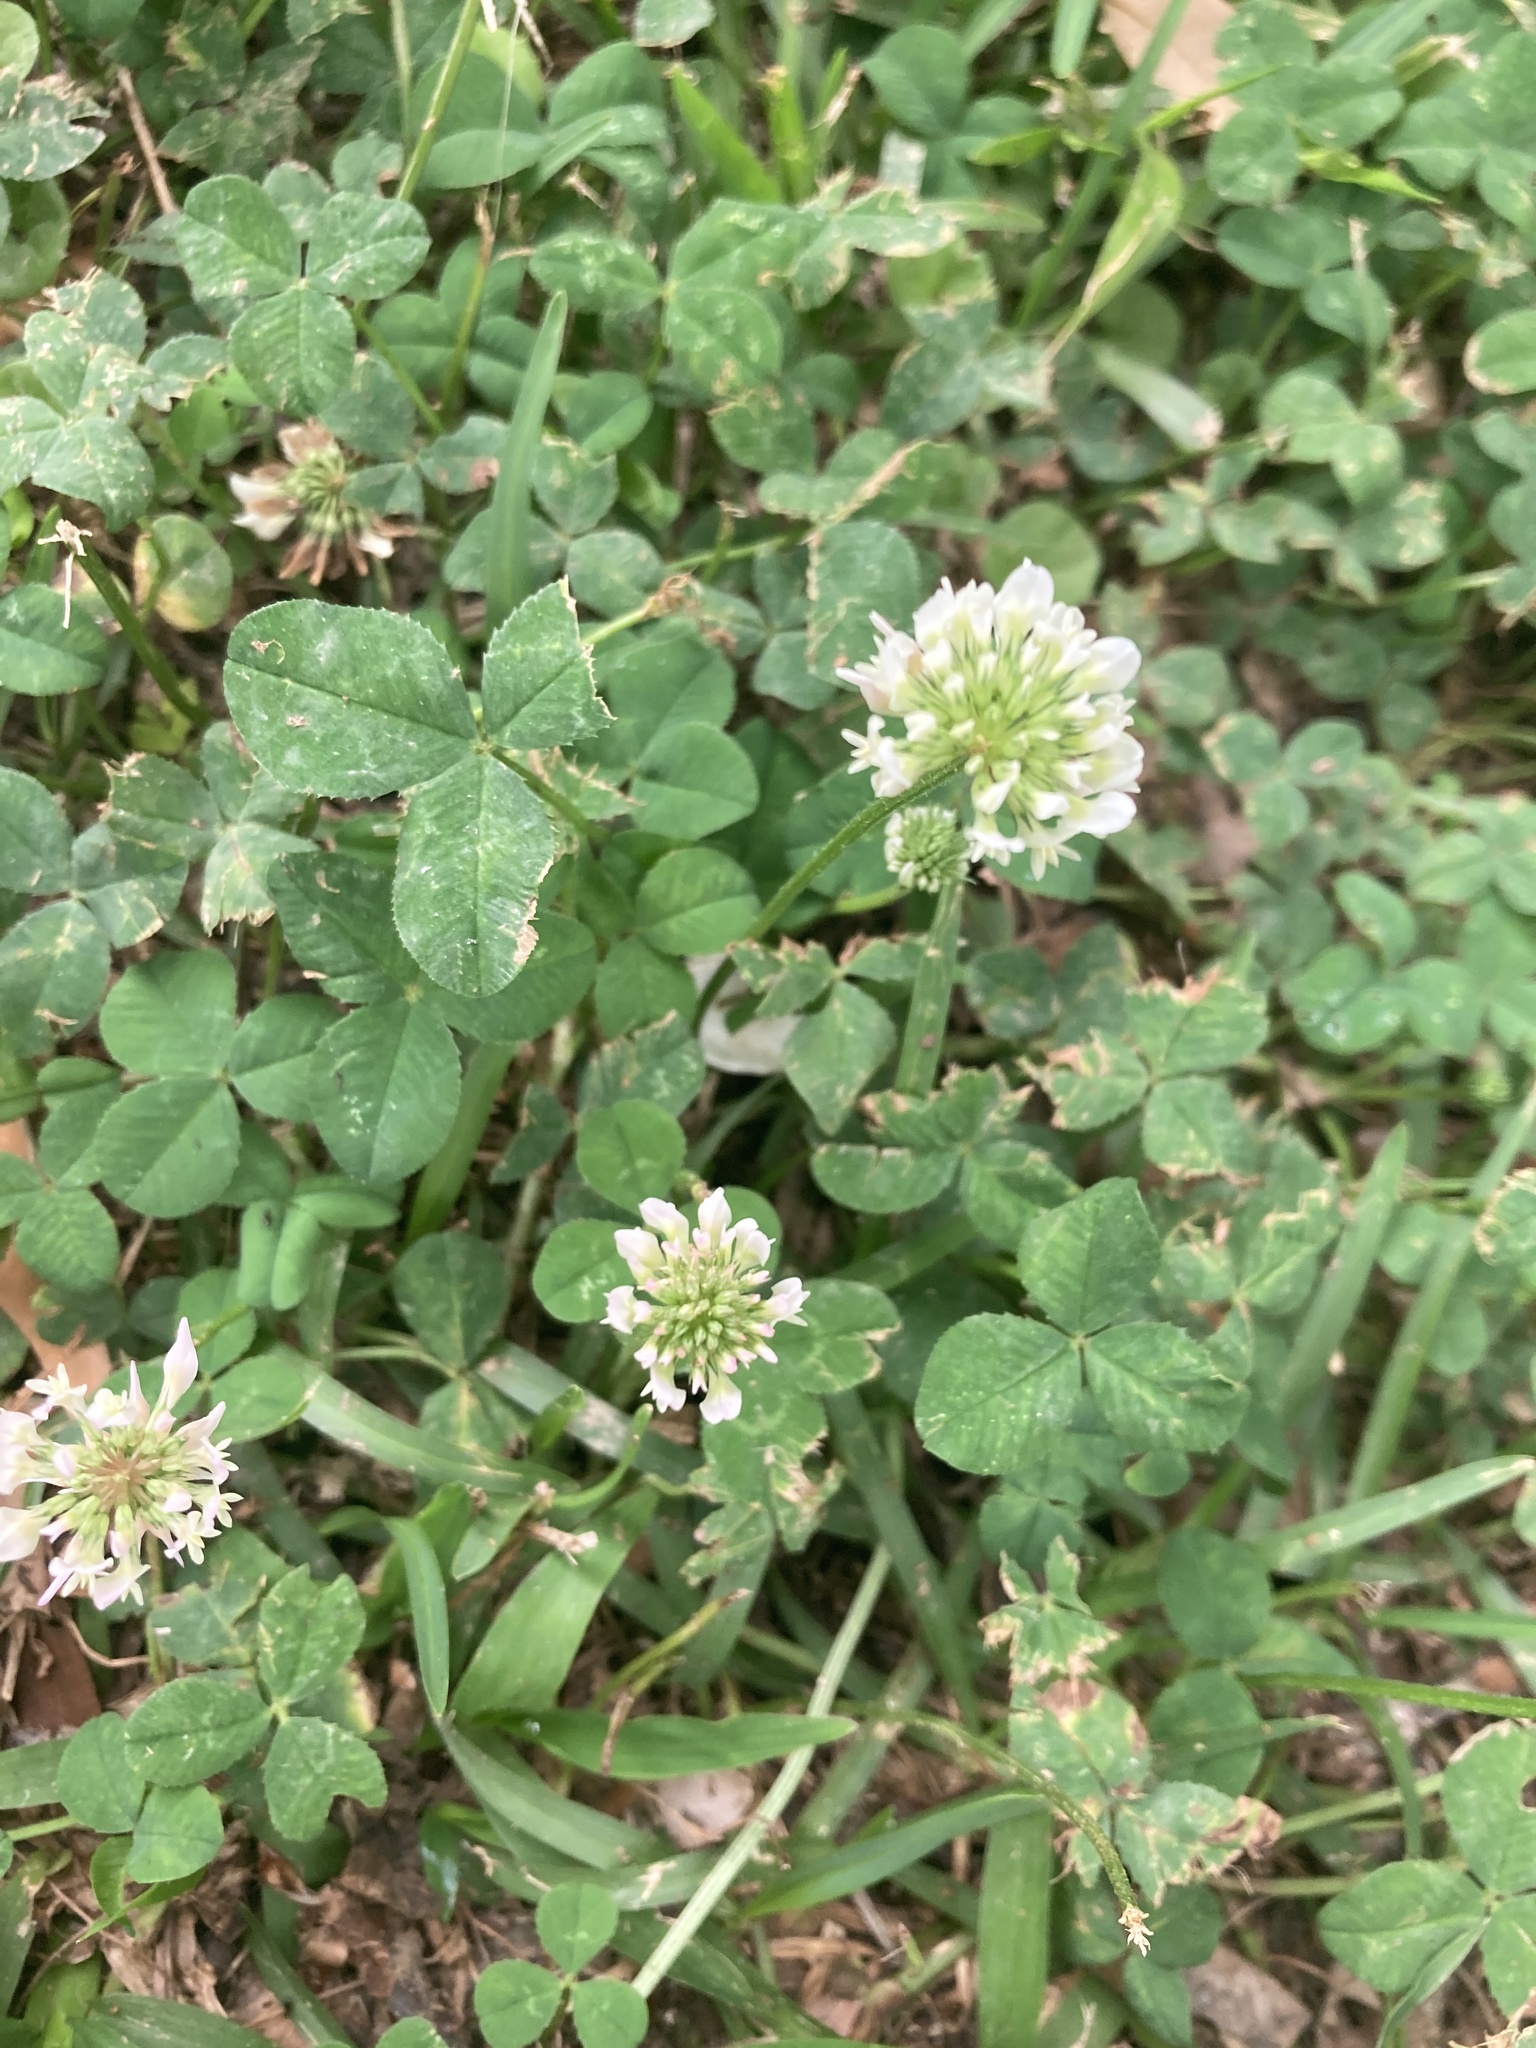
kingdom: Plantae
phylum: Tracheophyta
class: Magnoliopsida
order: Fabales
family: Fabaceae
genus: Trifolium
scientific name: Trifolium repens
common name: White clover
